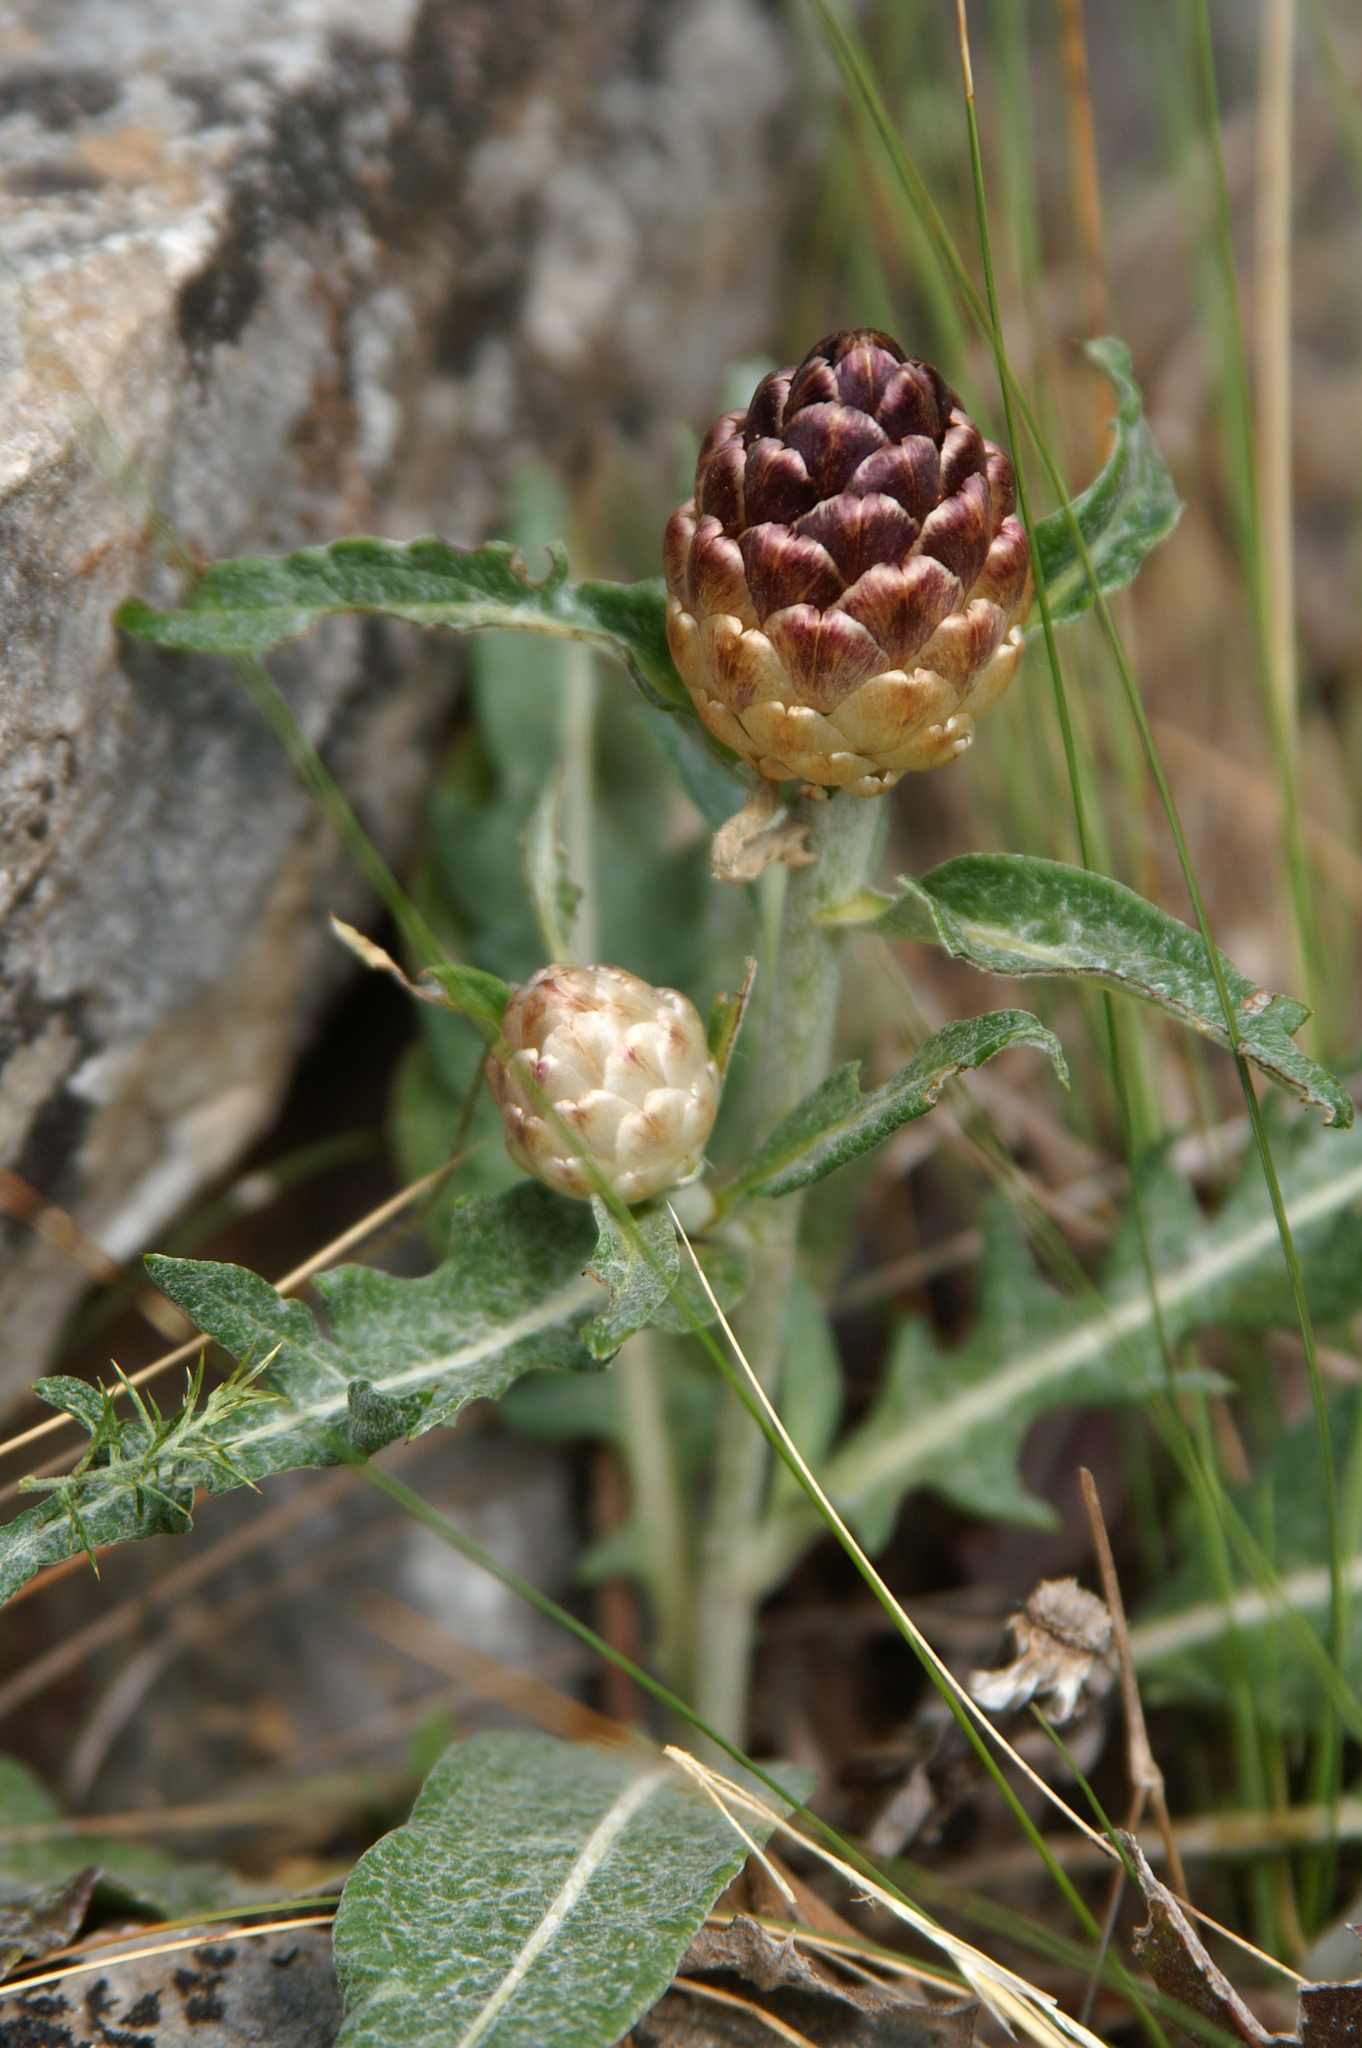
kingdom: Plantae
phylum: Tracheophyta
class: Magnoliopsida
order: Asterales
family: Asteraceae
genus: Leuzea
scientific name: Leuzea conifera
